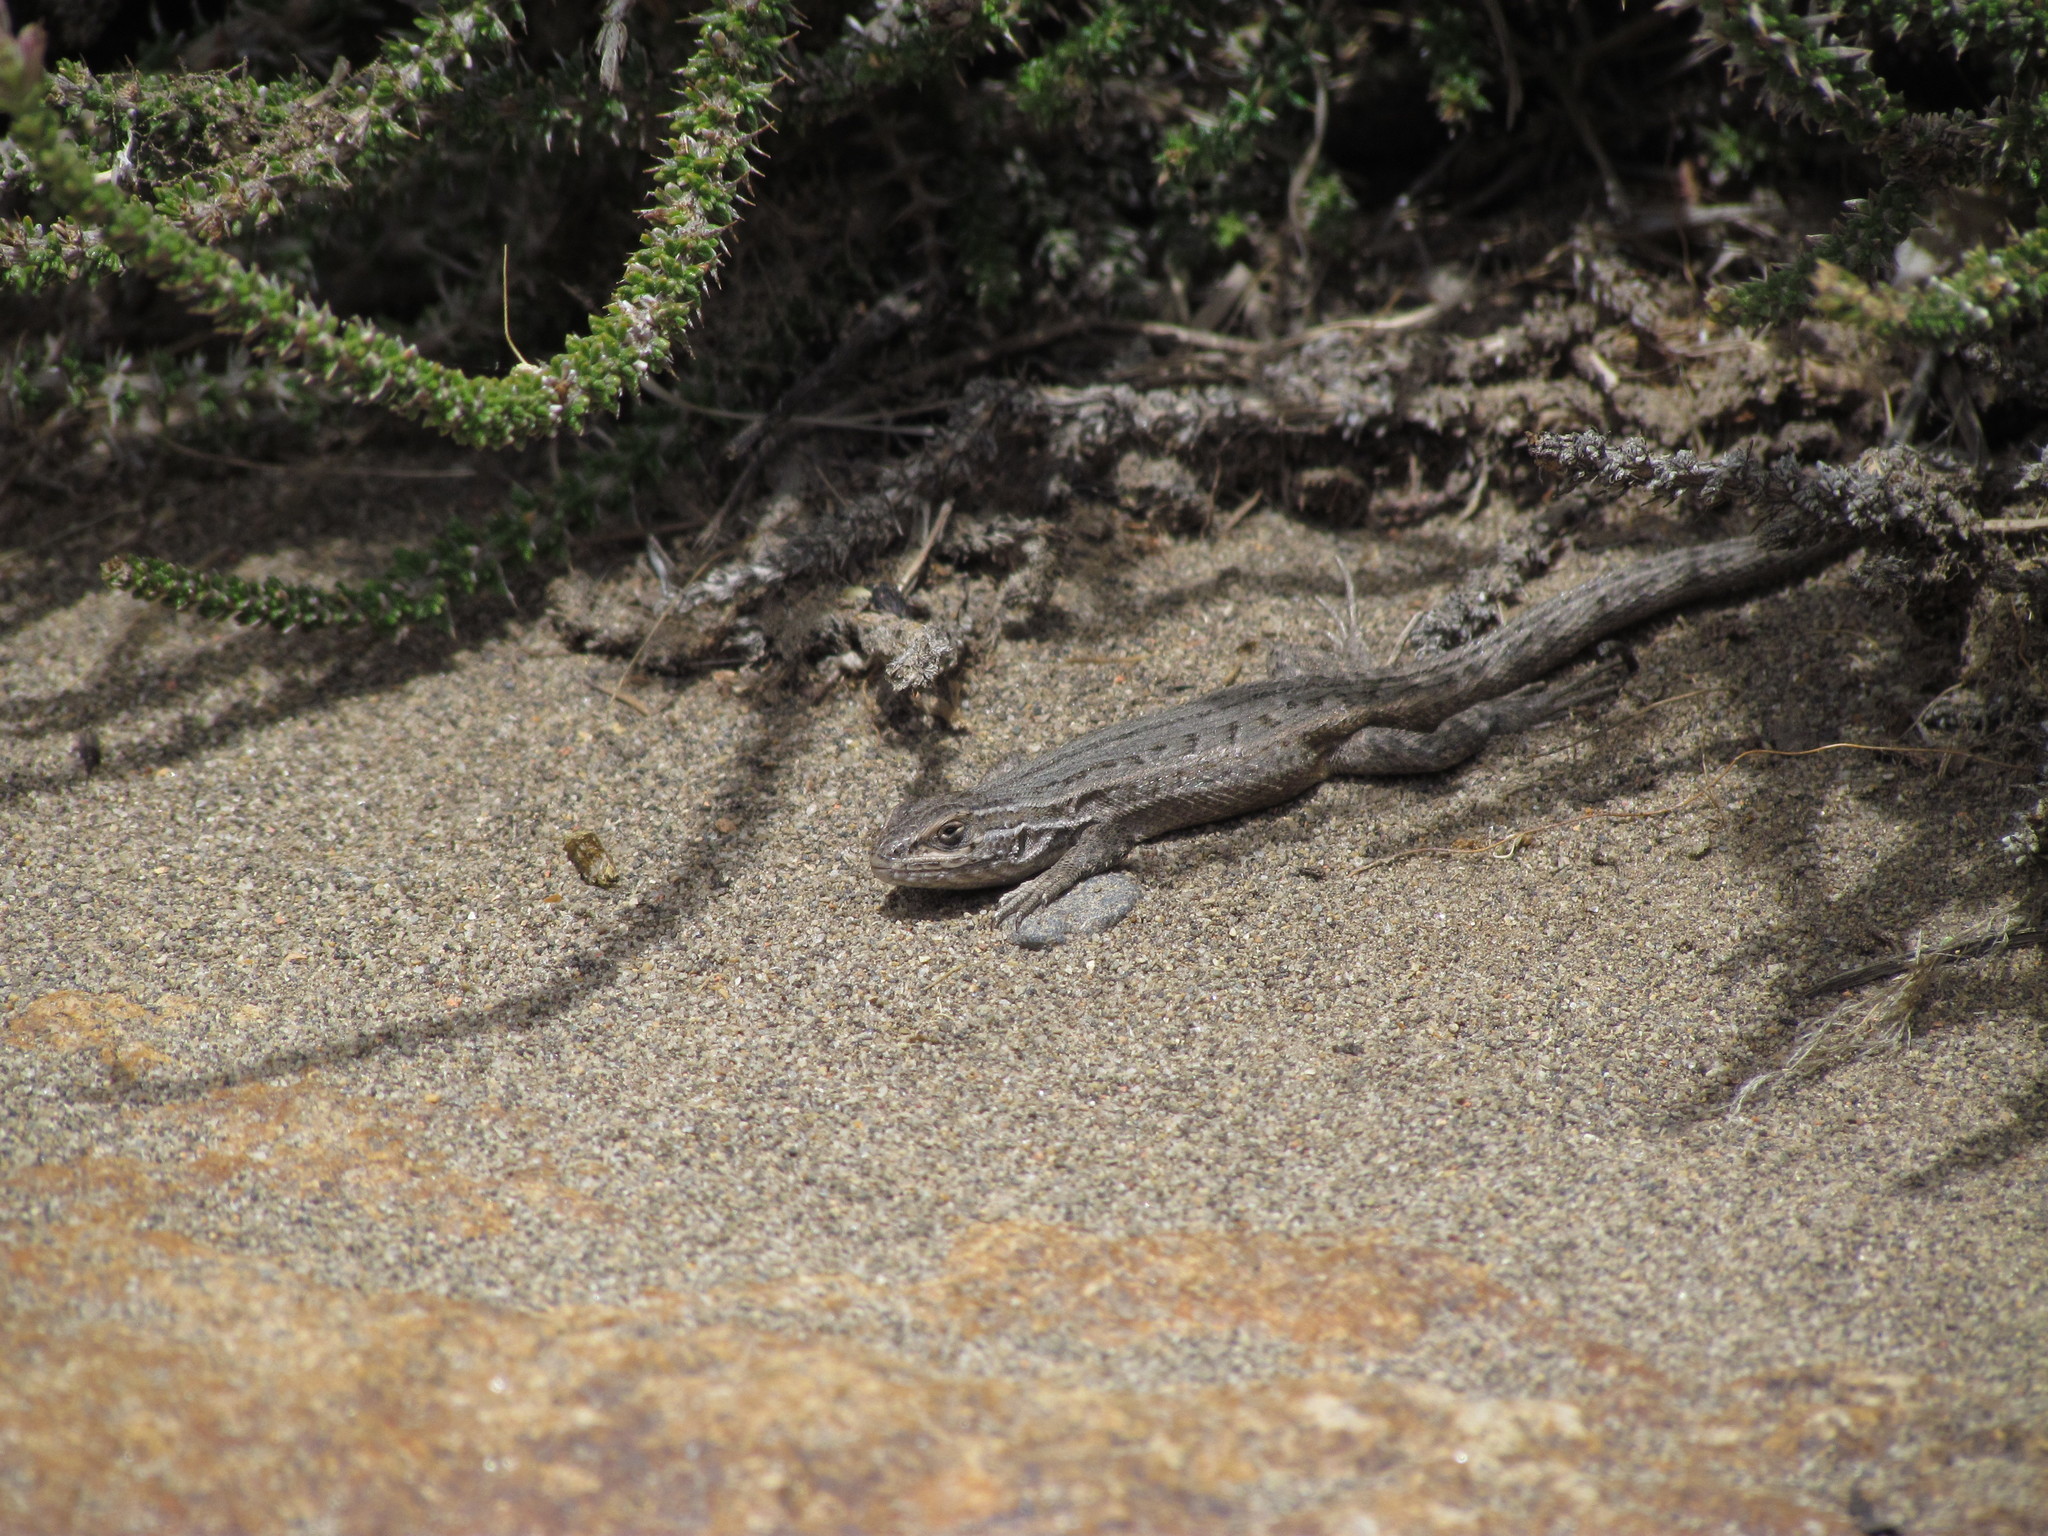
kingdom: Animalia
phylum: Chordata
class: Squamata
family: Liolaemidae
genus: Liolaemus
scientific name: Liolaemus bibronii
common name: Bibron's tree iguana
